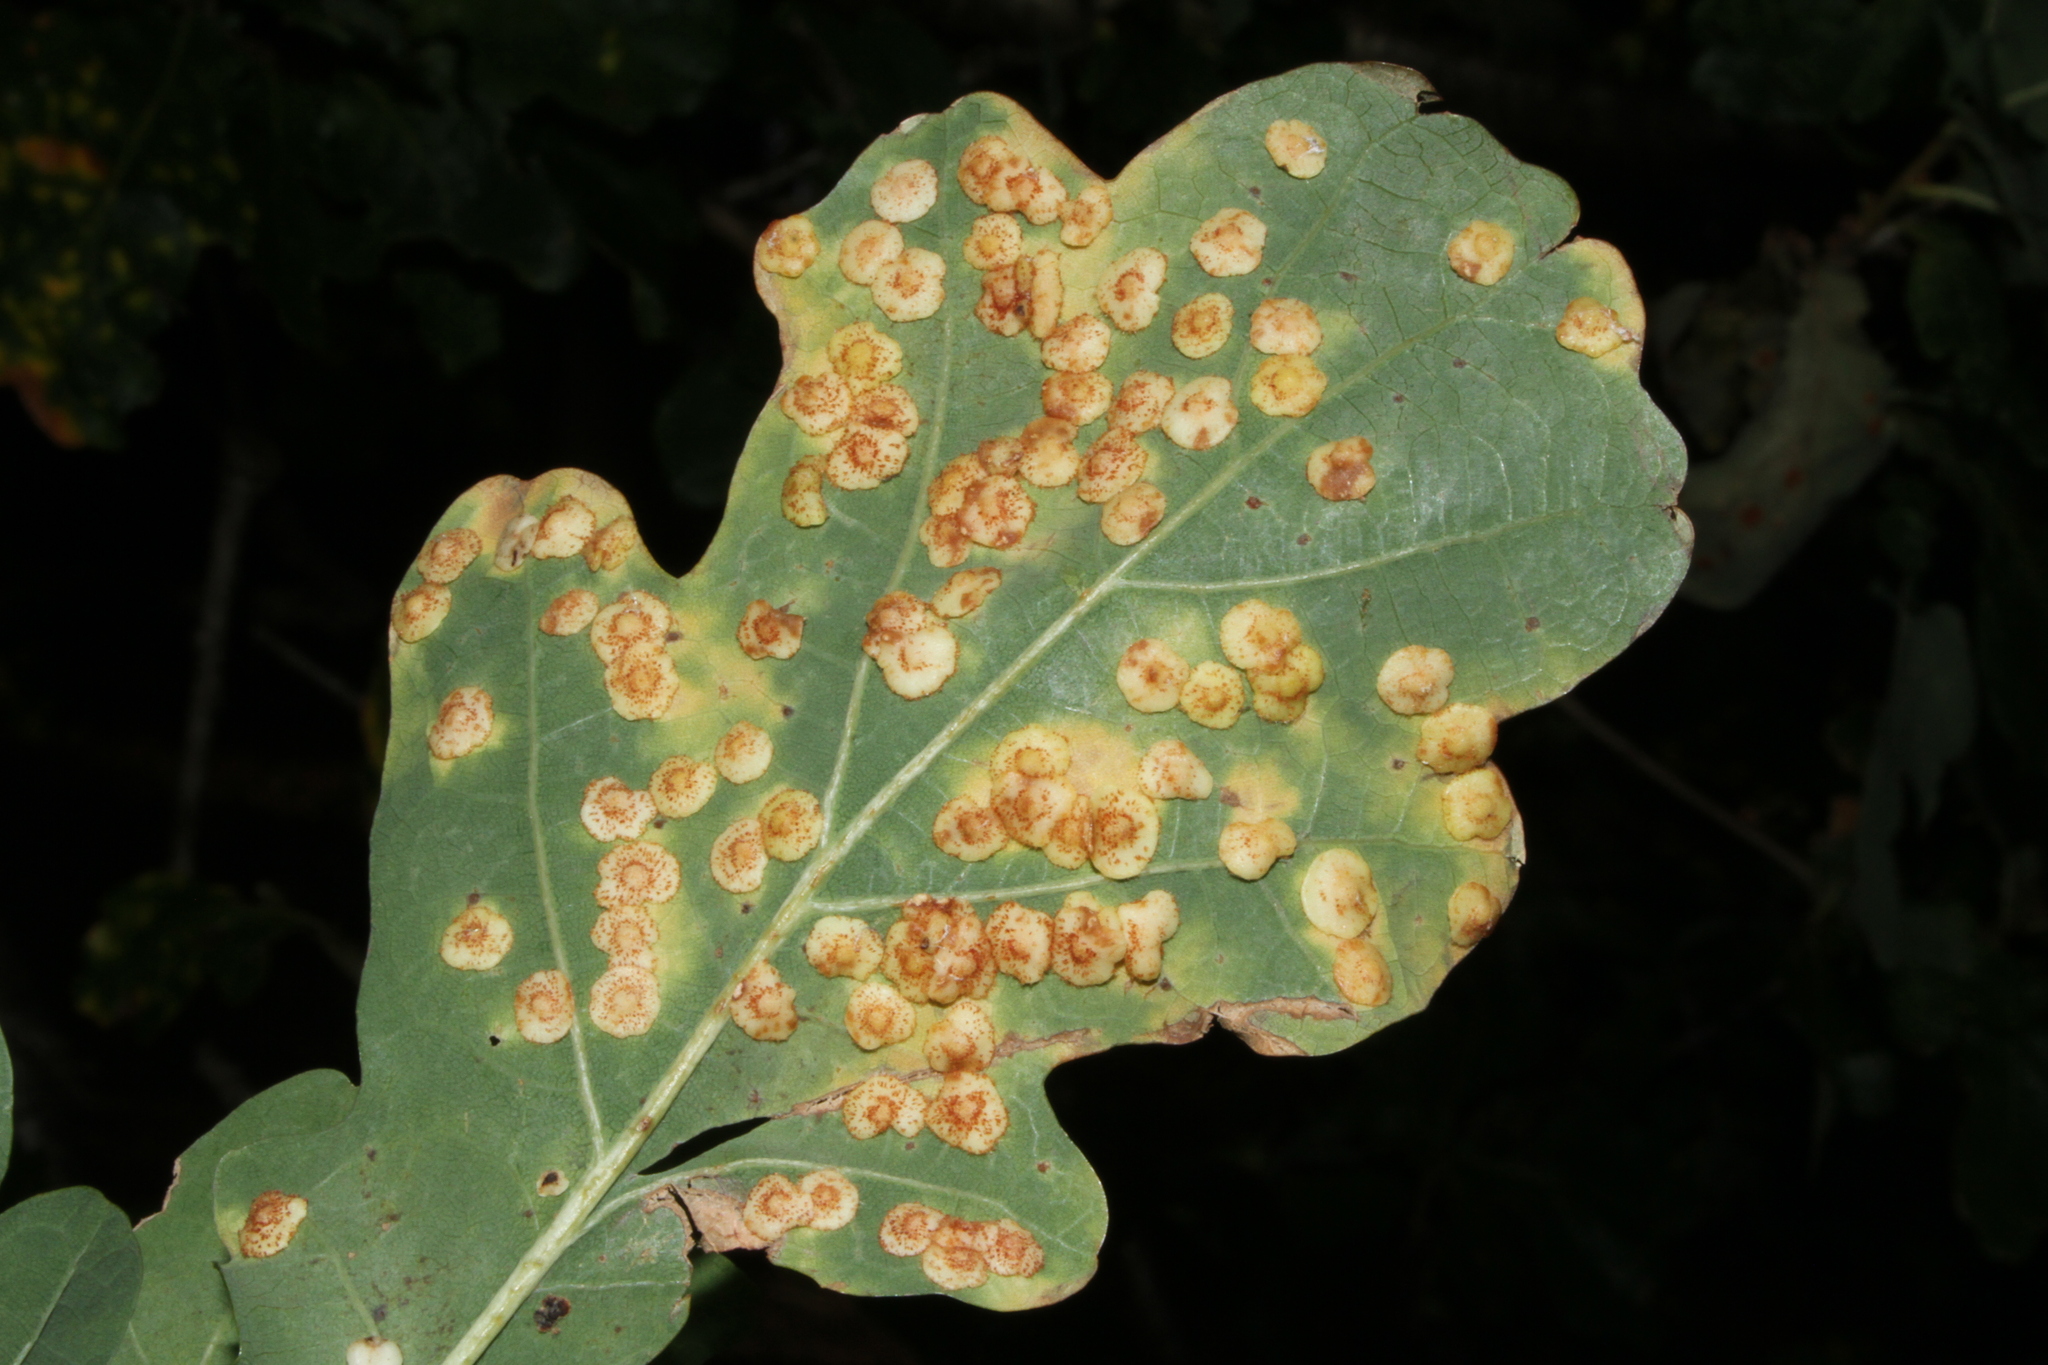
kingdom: Animalia
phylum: Arthropoda
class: Insecta
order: Hymenoptera
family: Cynipidae
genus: Neuroterus
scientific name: Neuroterus quercusbaccarum
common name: Common spangle gall
